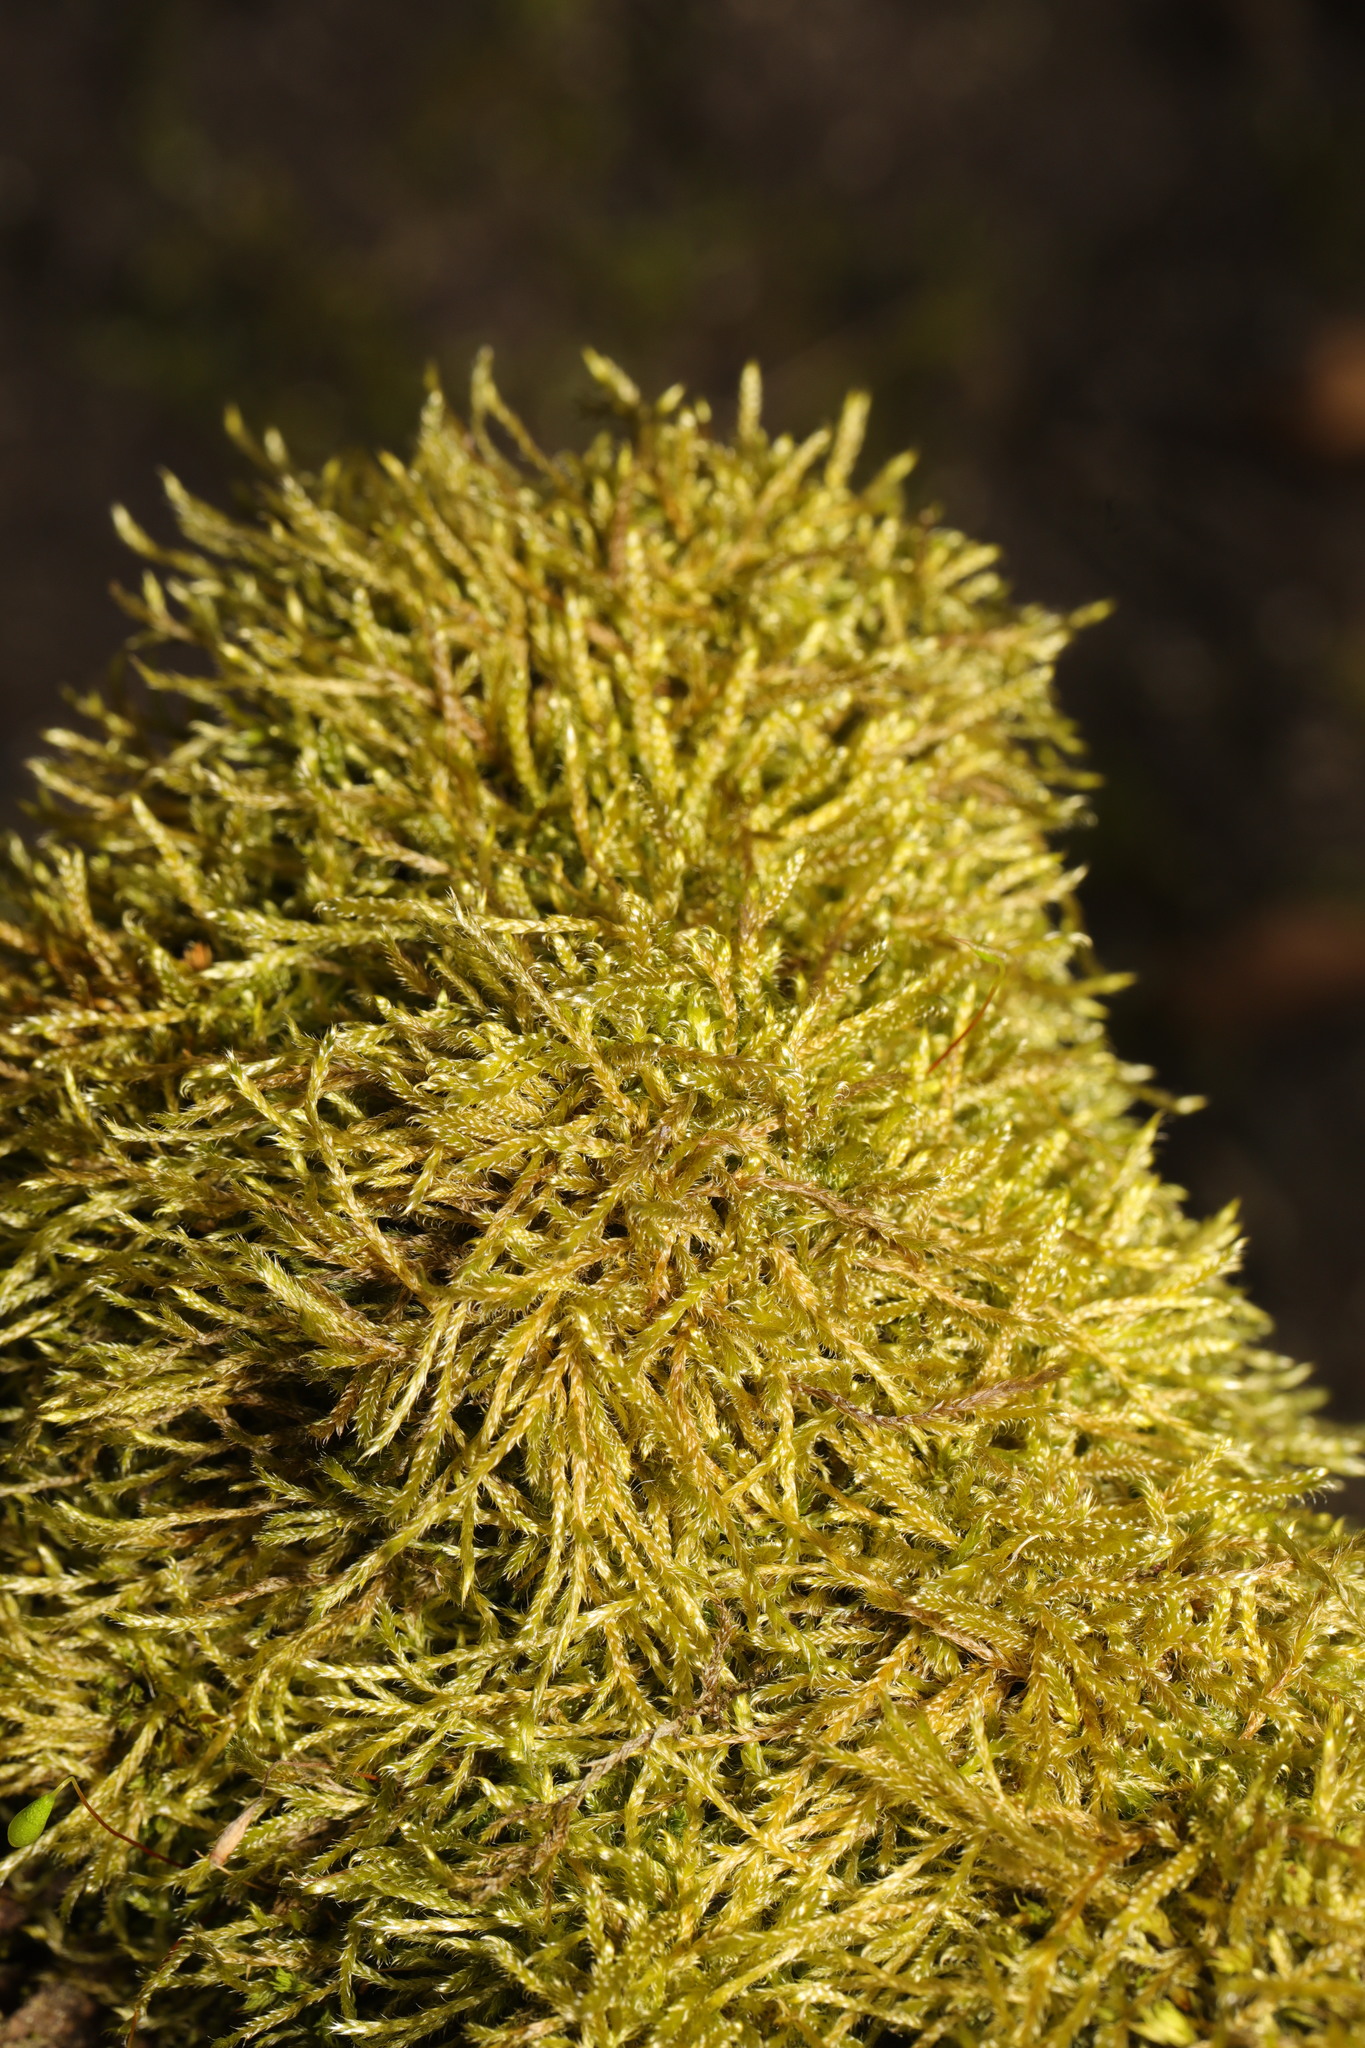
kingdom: Plantae
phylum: Bryophyta
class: Bryopsida
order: Hypnales
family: Hypnaceae
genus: Hypnum
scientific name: Hypnum cupressiforme
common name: Cypress-leaved plait-moss
